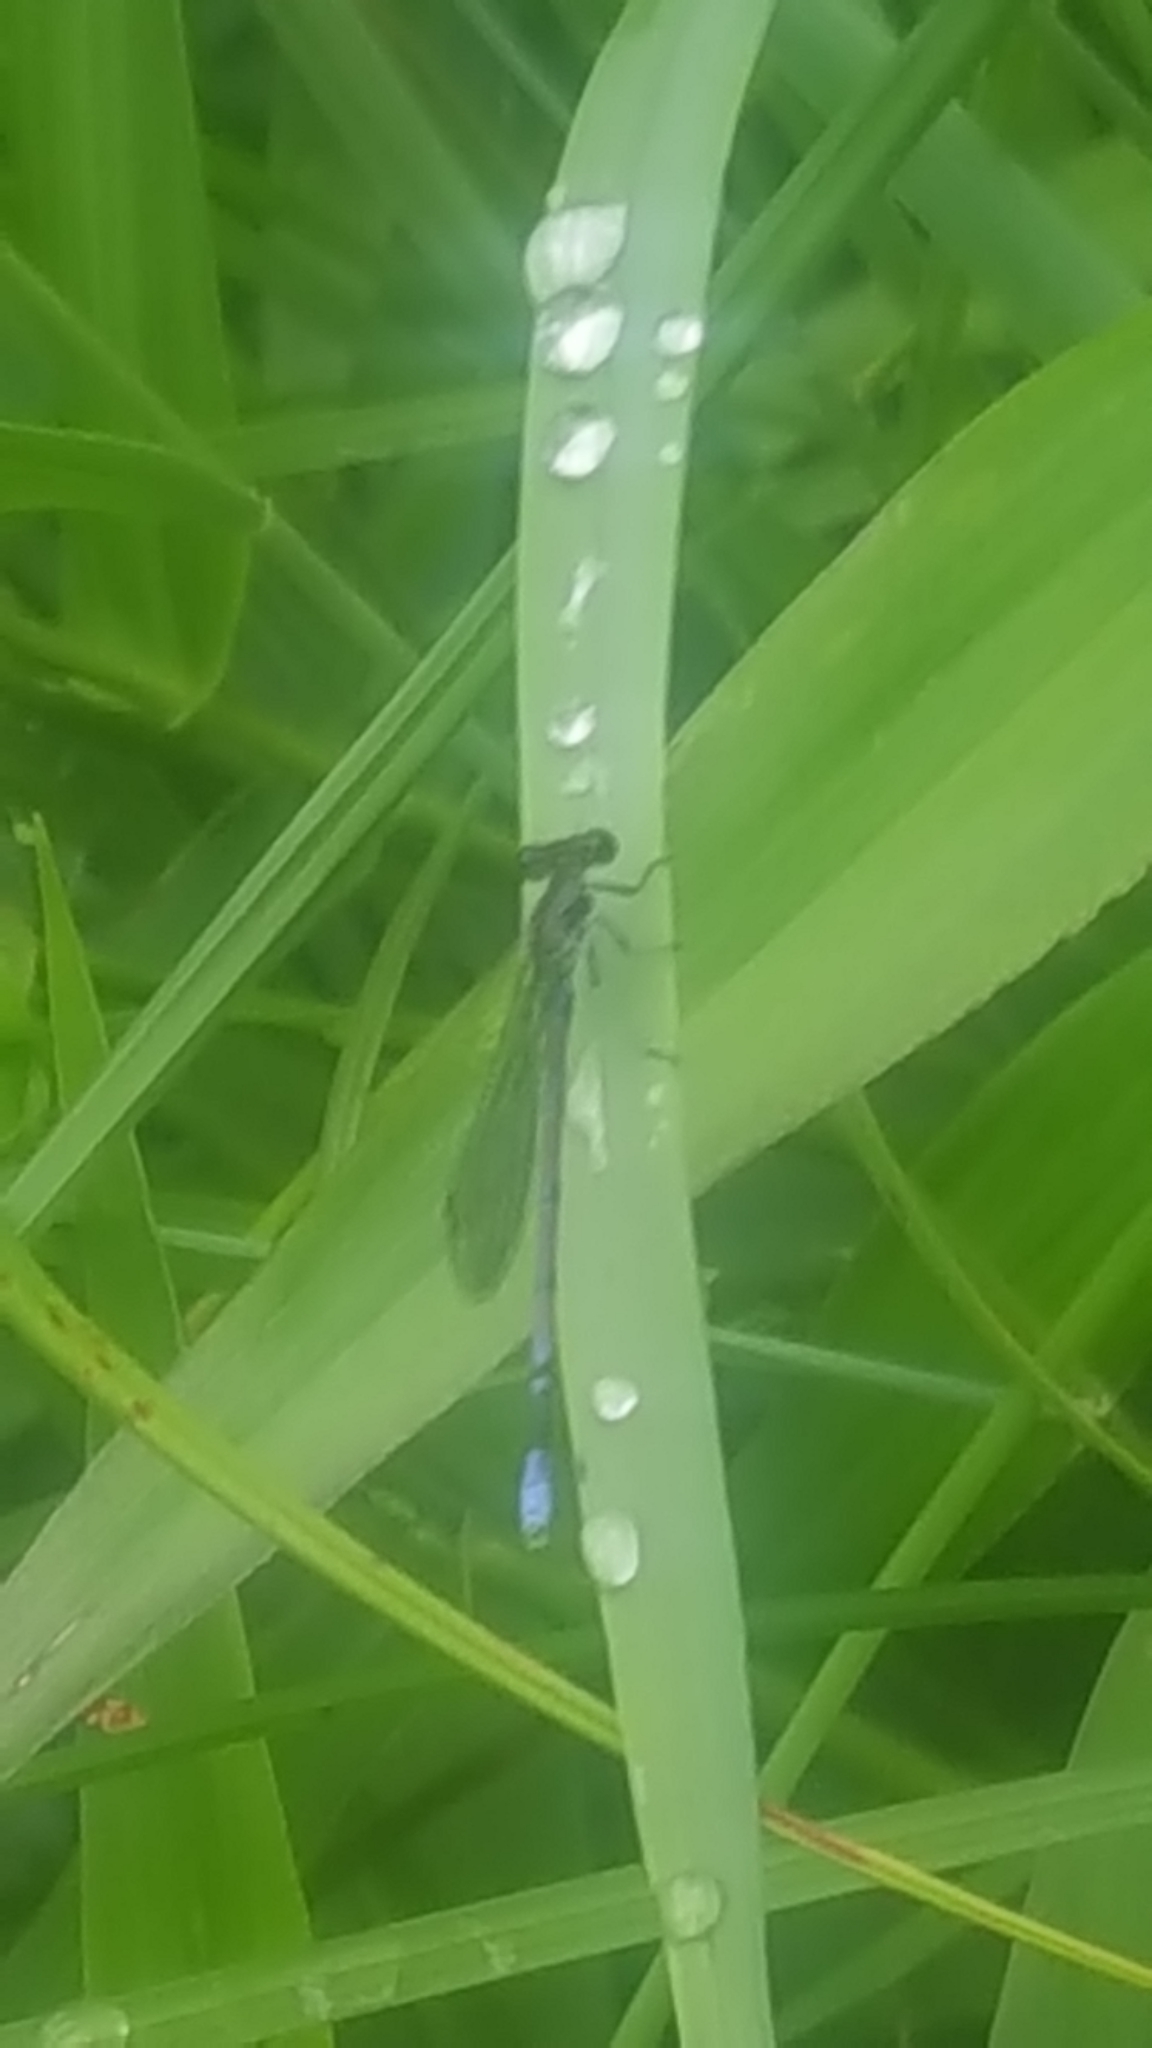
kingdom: Animalia
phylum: Arthropoda
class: Insecta
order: Odonata
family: Coenagrionidae
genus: Argia
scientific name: Argia fumipennis
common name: Variable dancer
